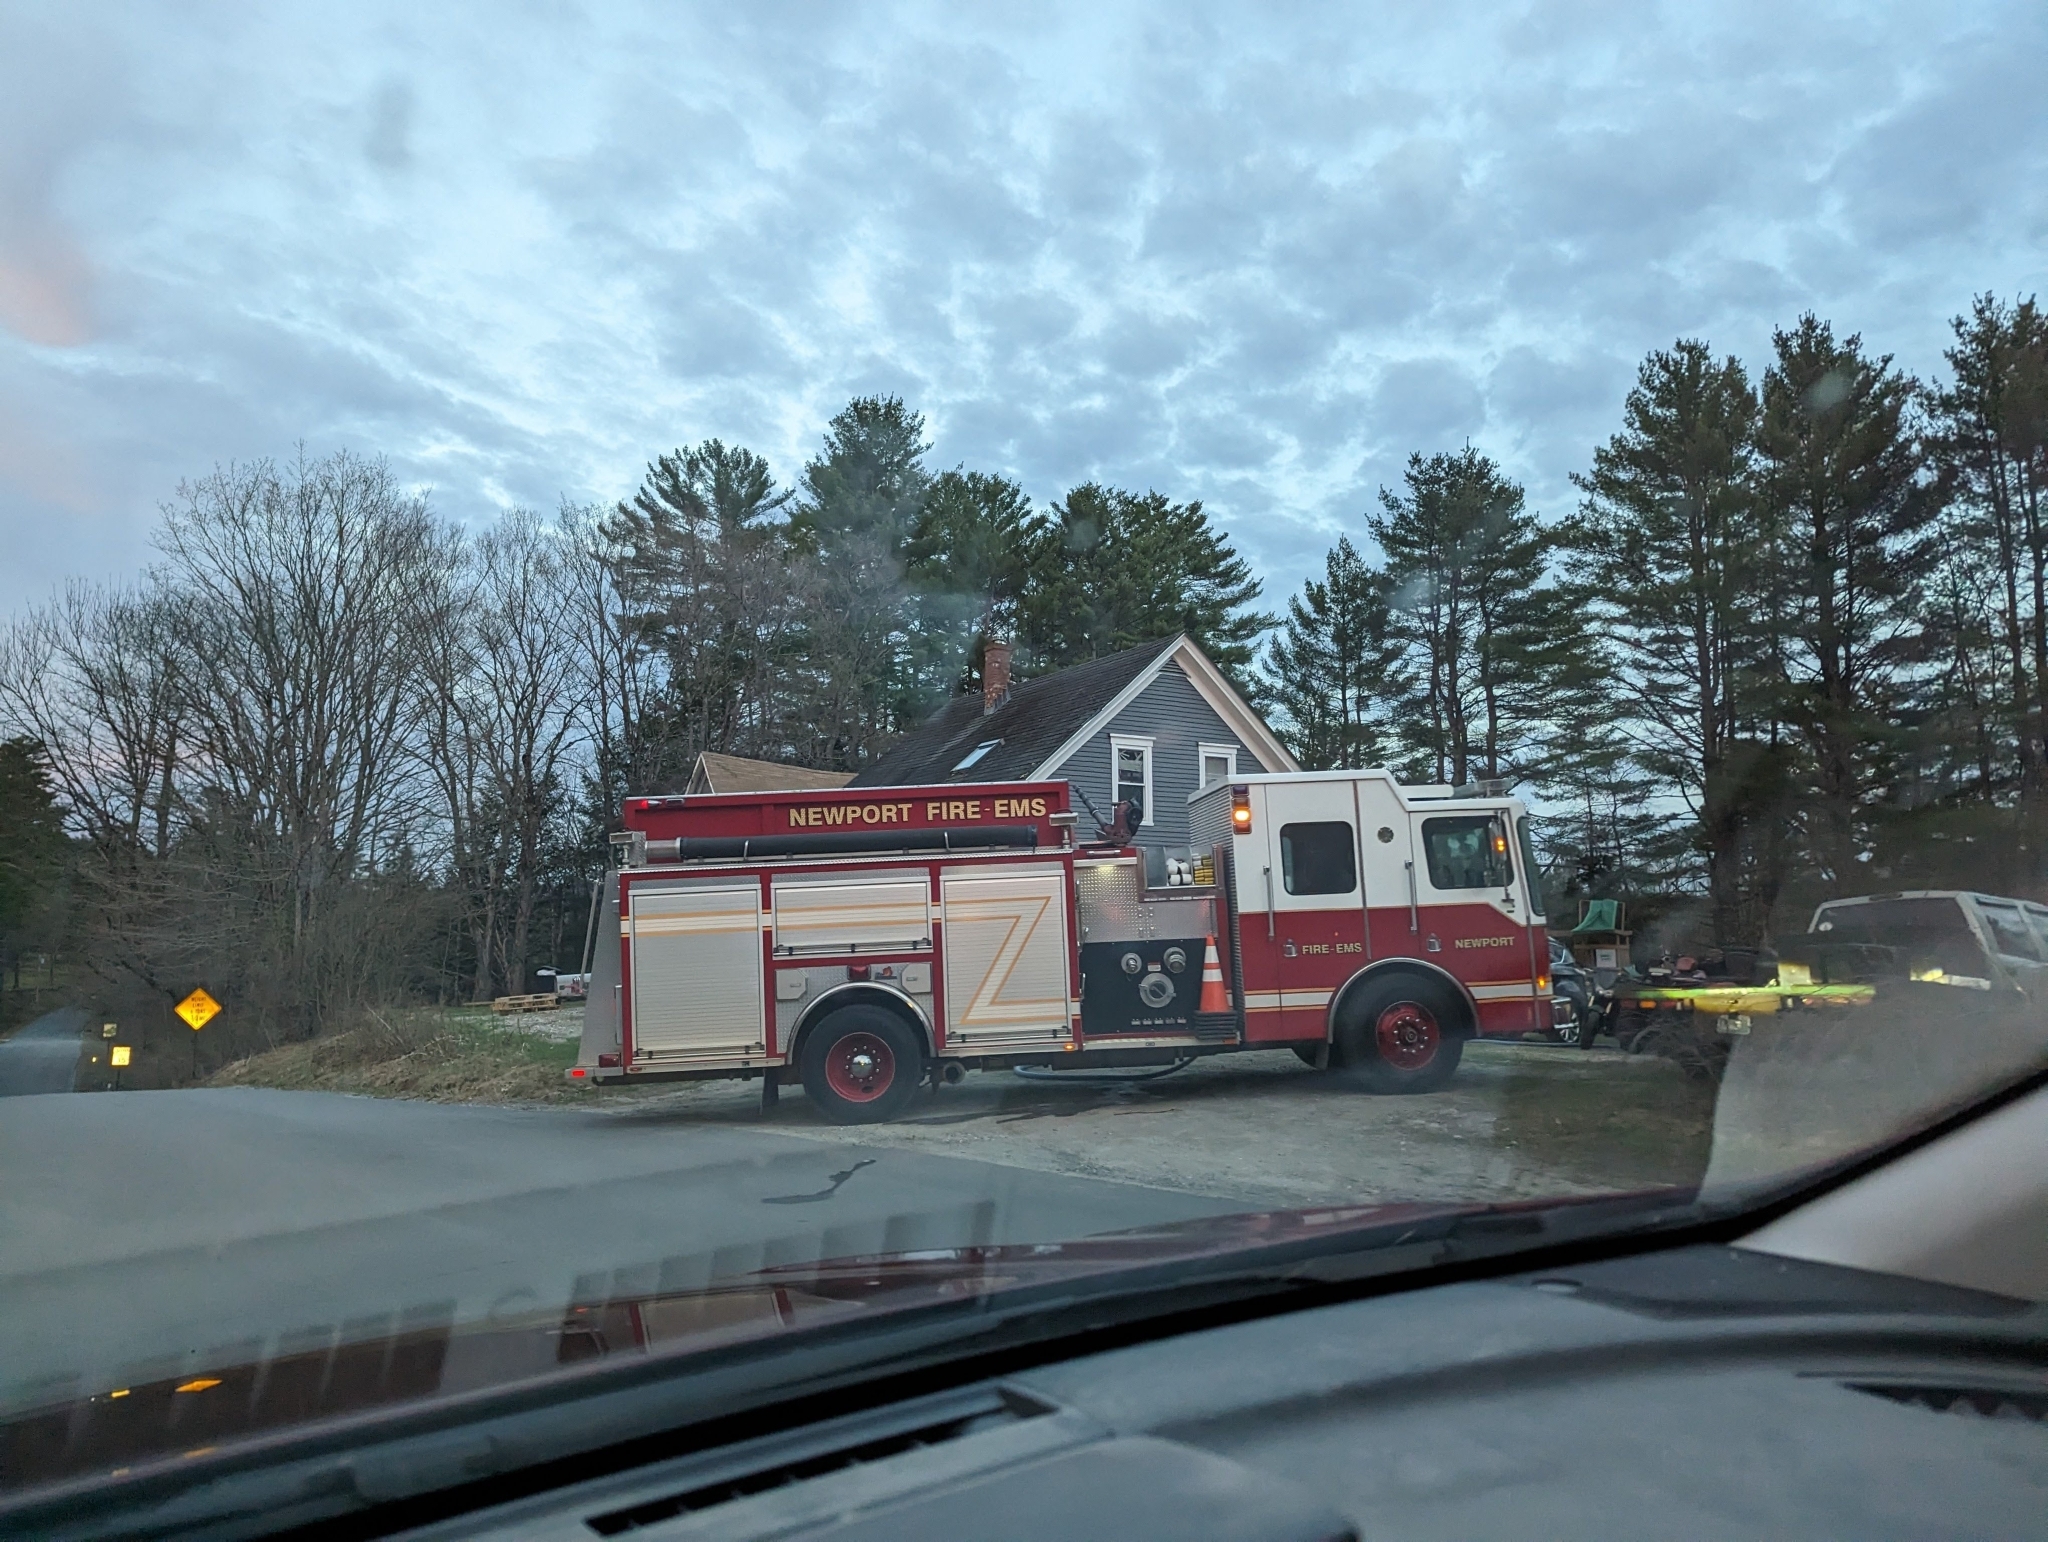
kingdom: Plantae
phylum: Tracheophyta
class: Pinopsida
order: Pinales
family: Pinaceae
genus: Pinus
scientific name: Pinus strobus
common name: Weymouth pine
